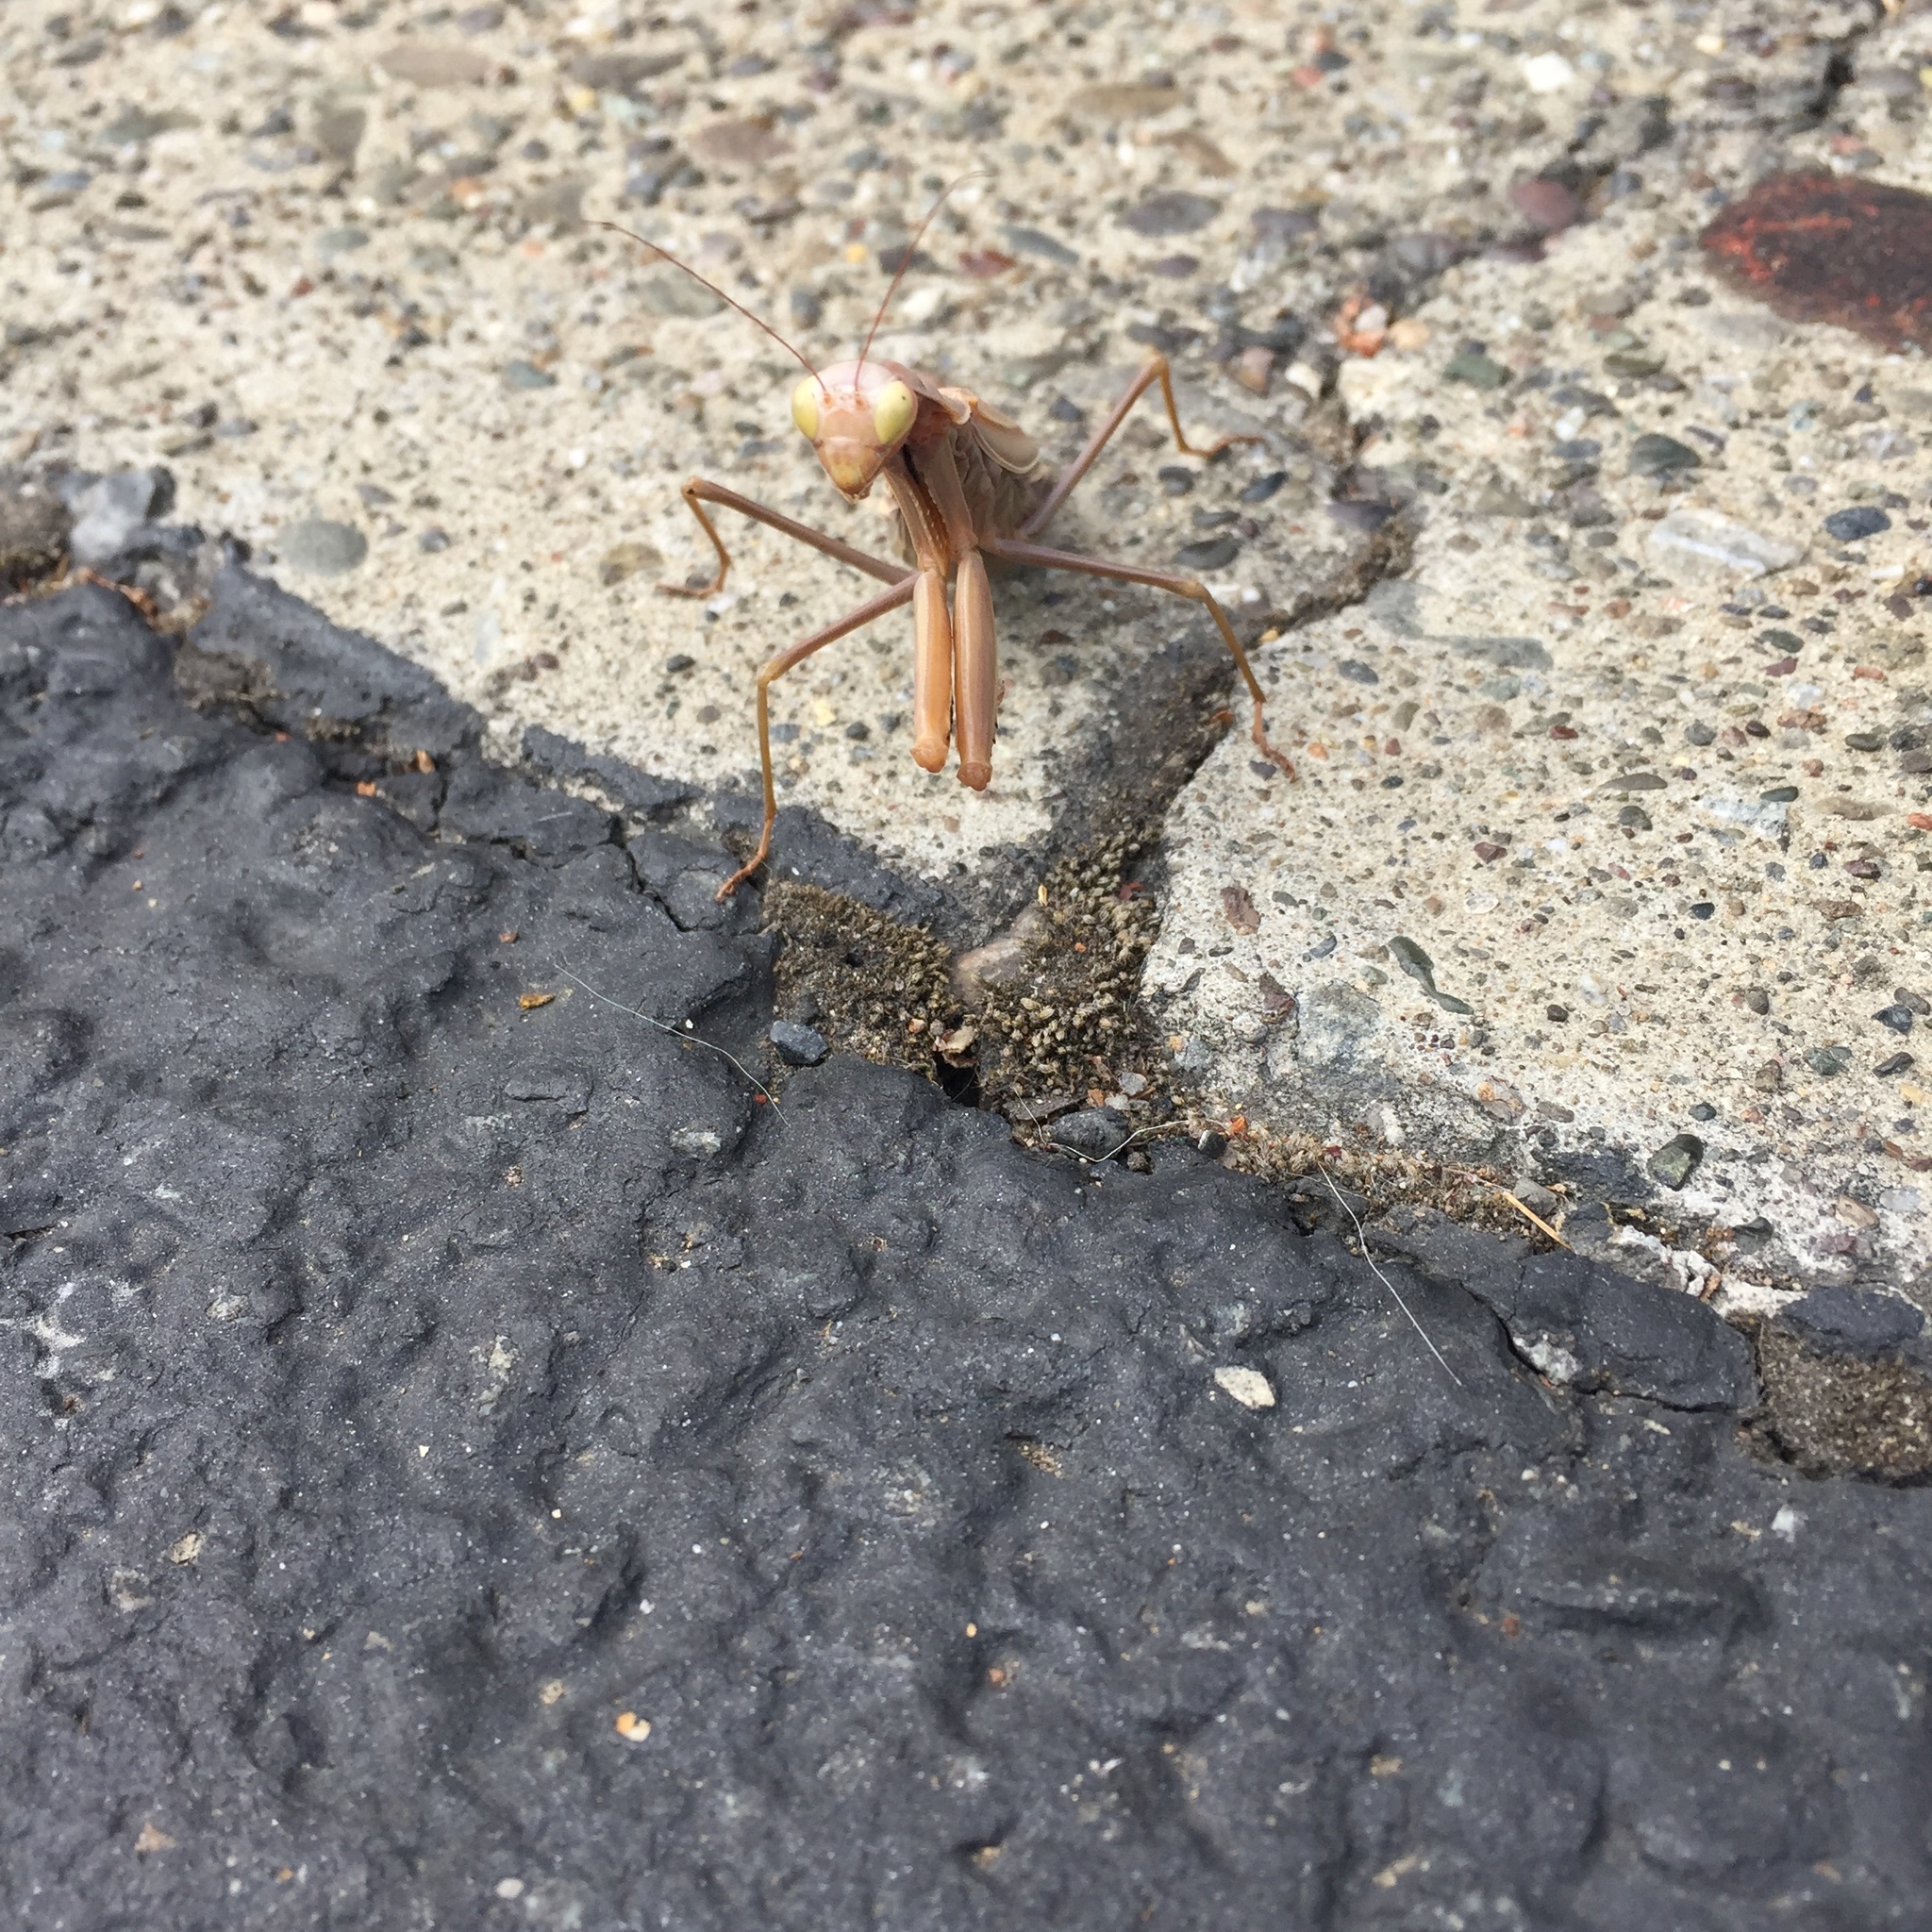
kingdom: Animalia
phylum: Arthropoda
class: Insecta
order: Mantodea
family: Mantidae
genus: Mantis
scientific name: Mantis religiosa
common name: Praying mantis
